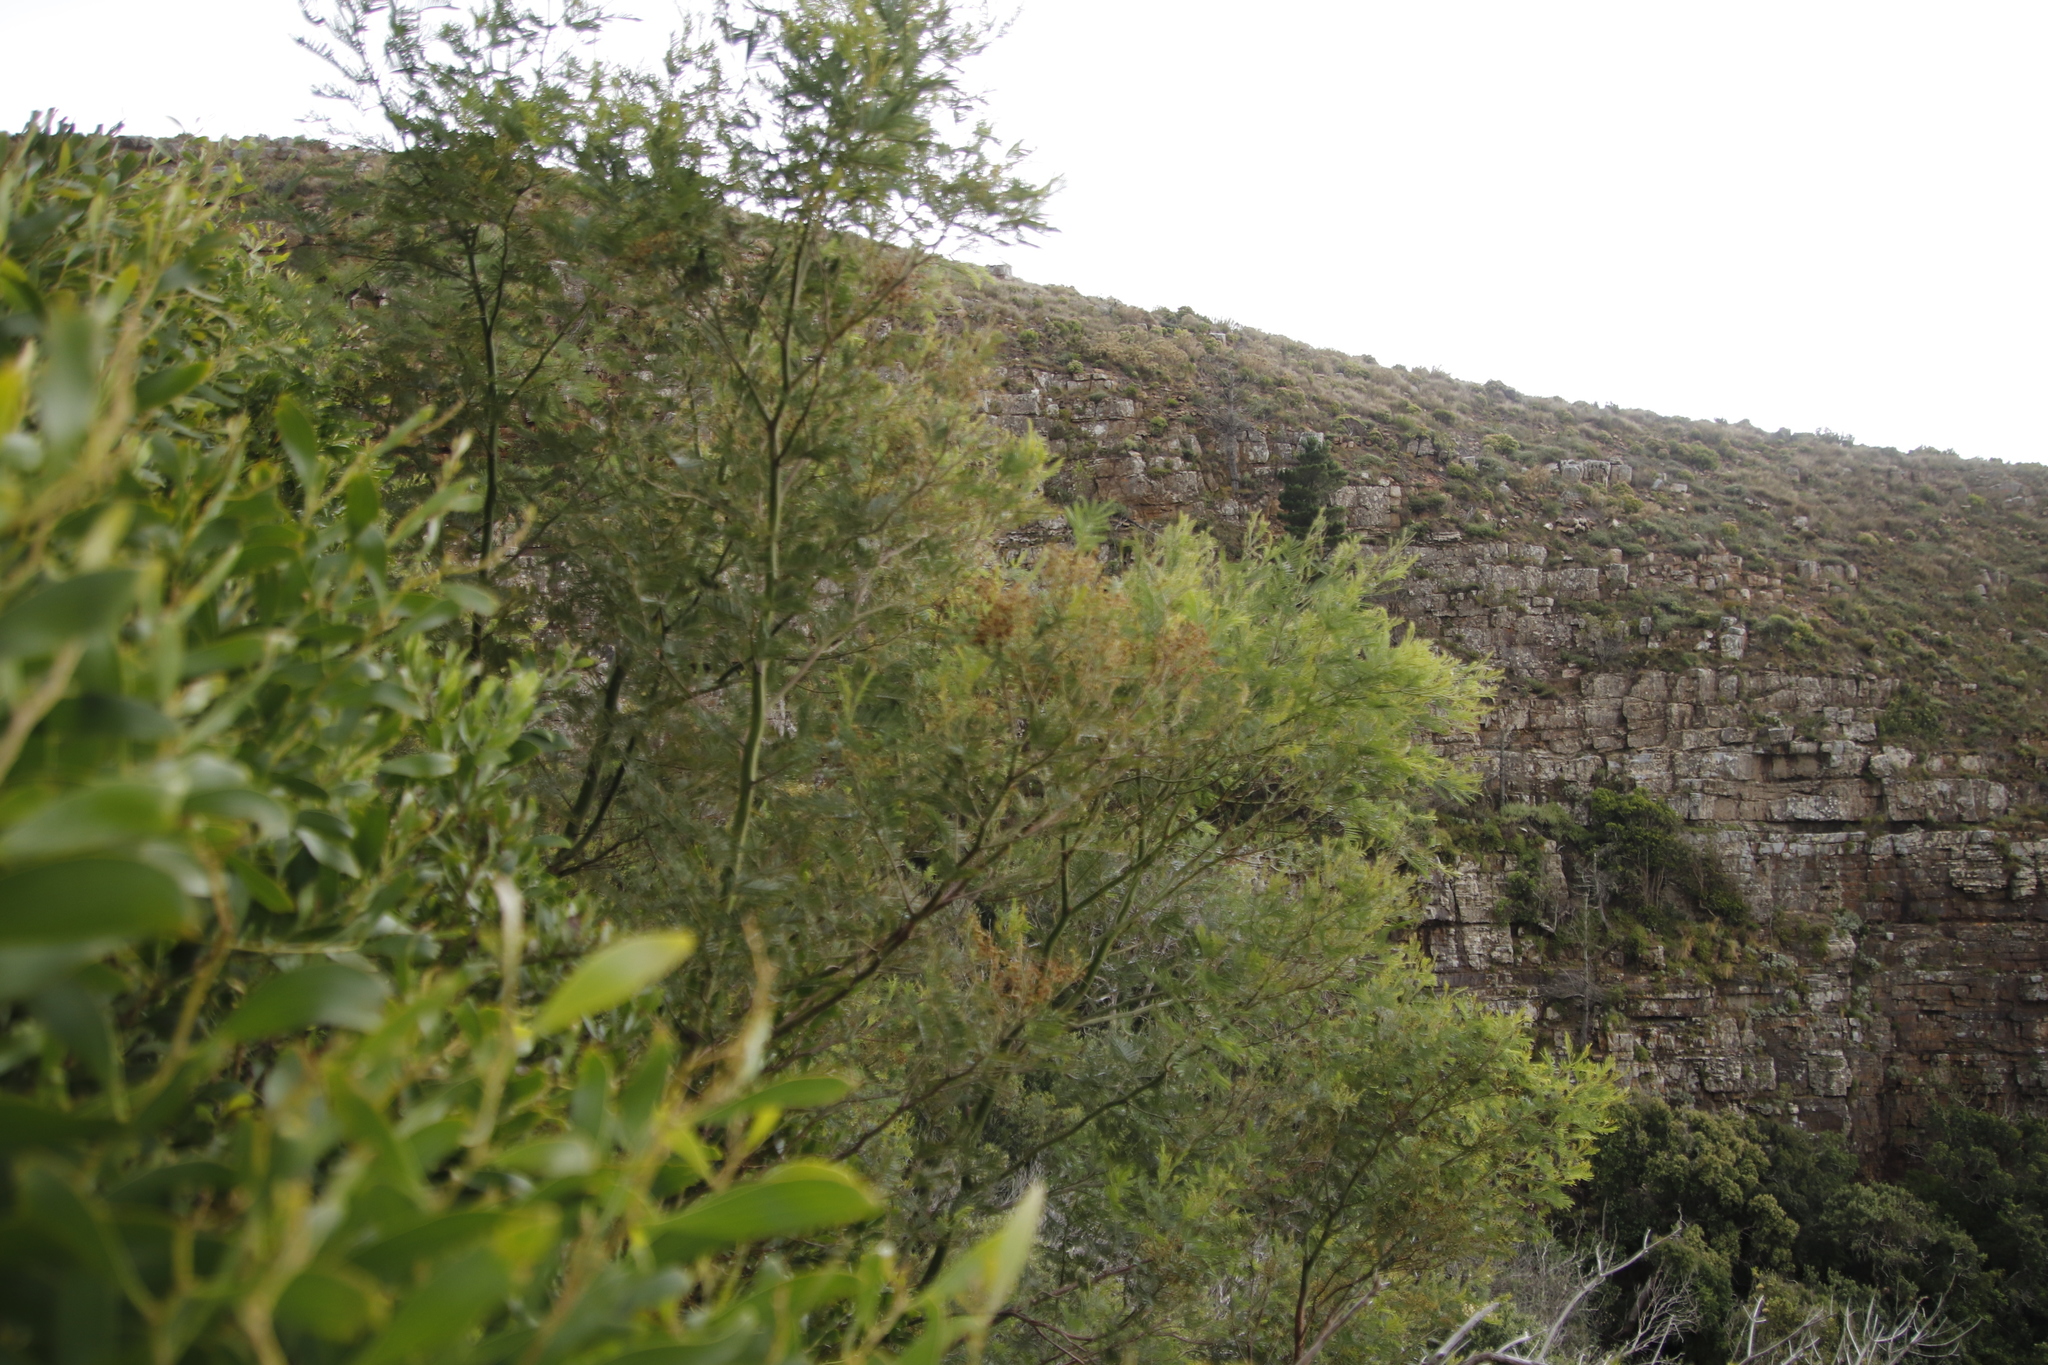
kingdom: Plantae
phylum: Tracheophyta
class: Magnoliopsida
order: Fabales
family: Fabaceae
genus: Acacia
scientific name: Acacia mearnsii
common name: Black wattle
